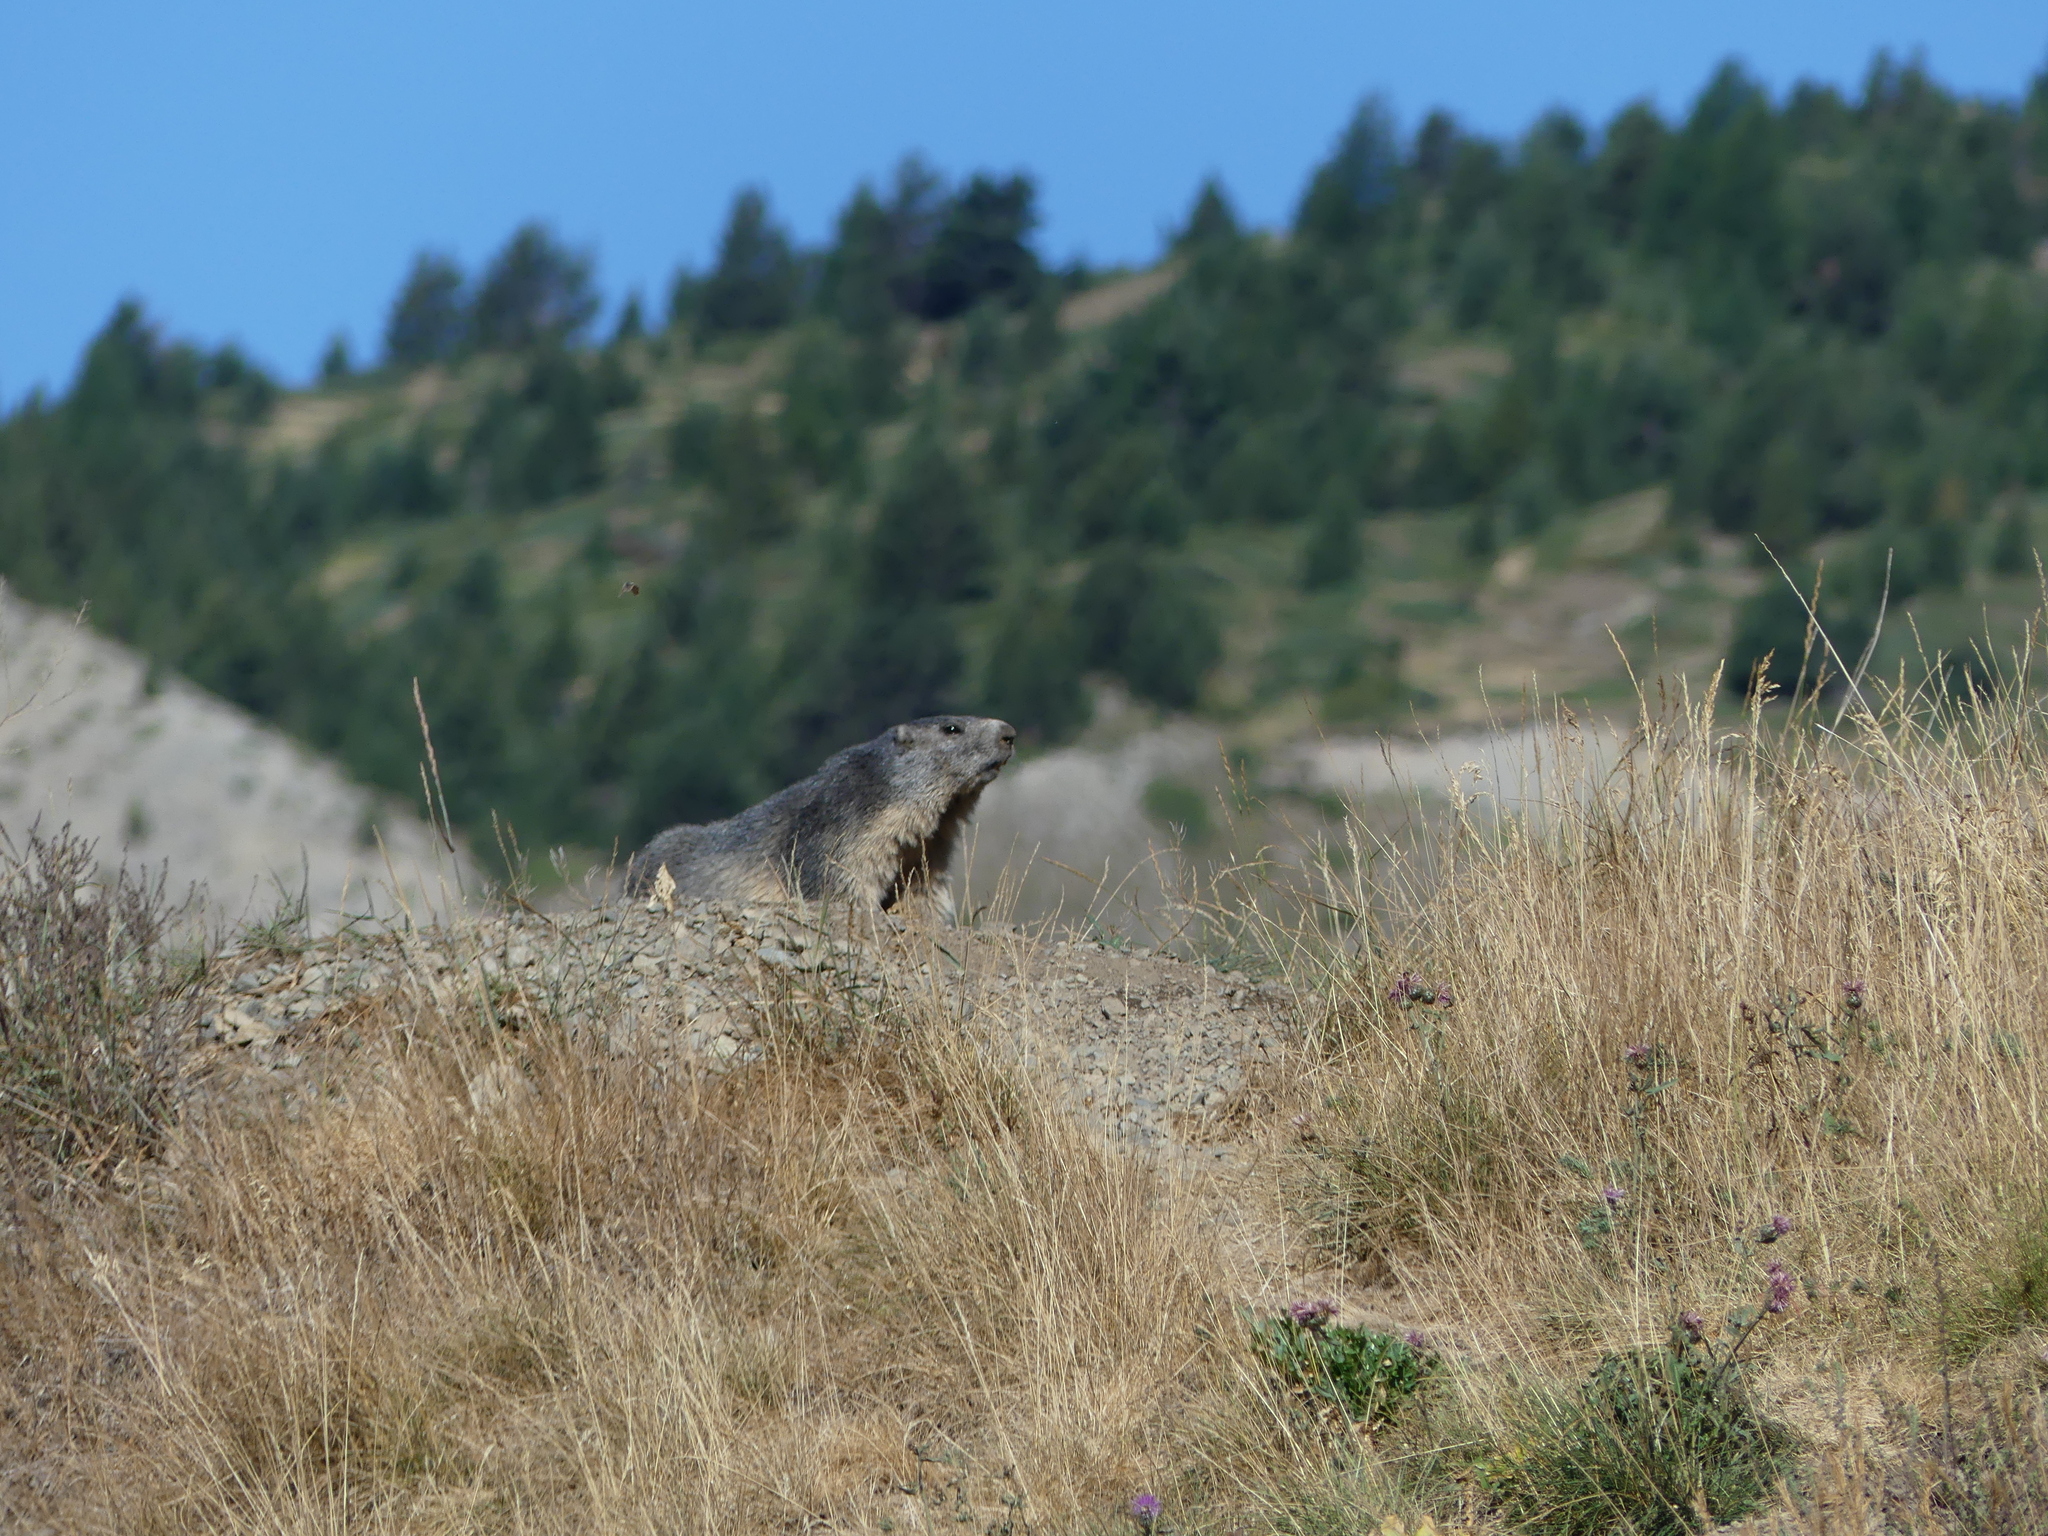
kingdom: Animalia
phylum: Chordata
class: Mammalia
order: Rodentia
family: Sciuridae
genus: Marmota
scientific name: Marmota marmota
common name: Alpine marmot
